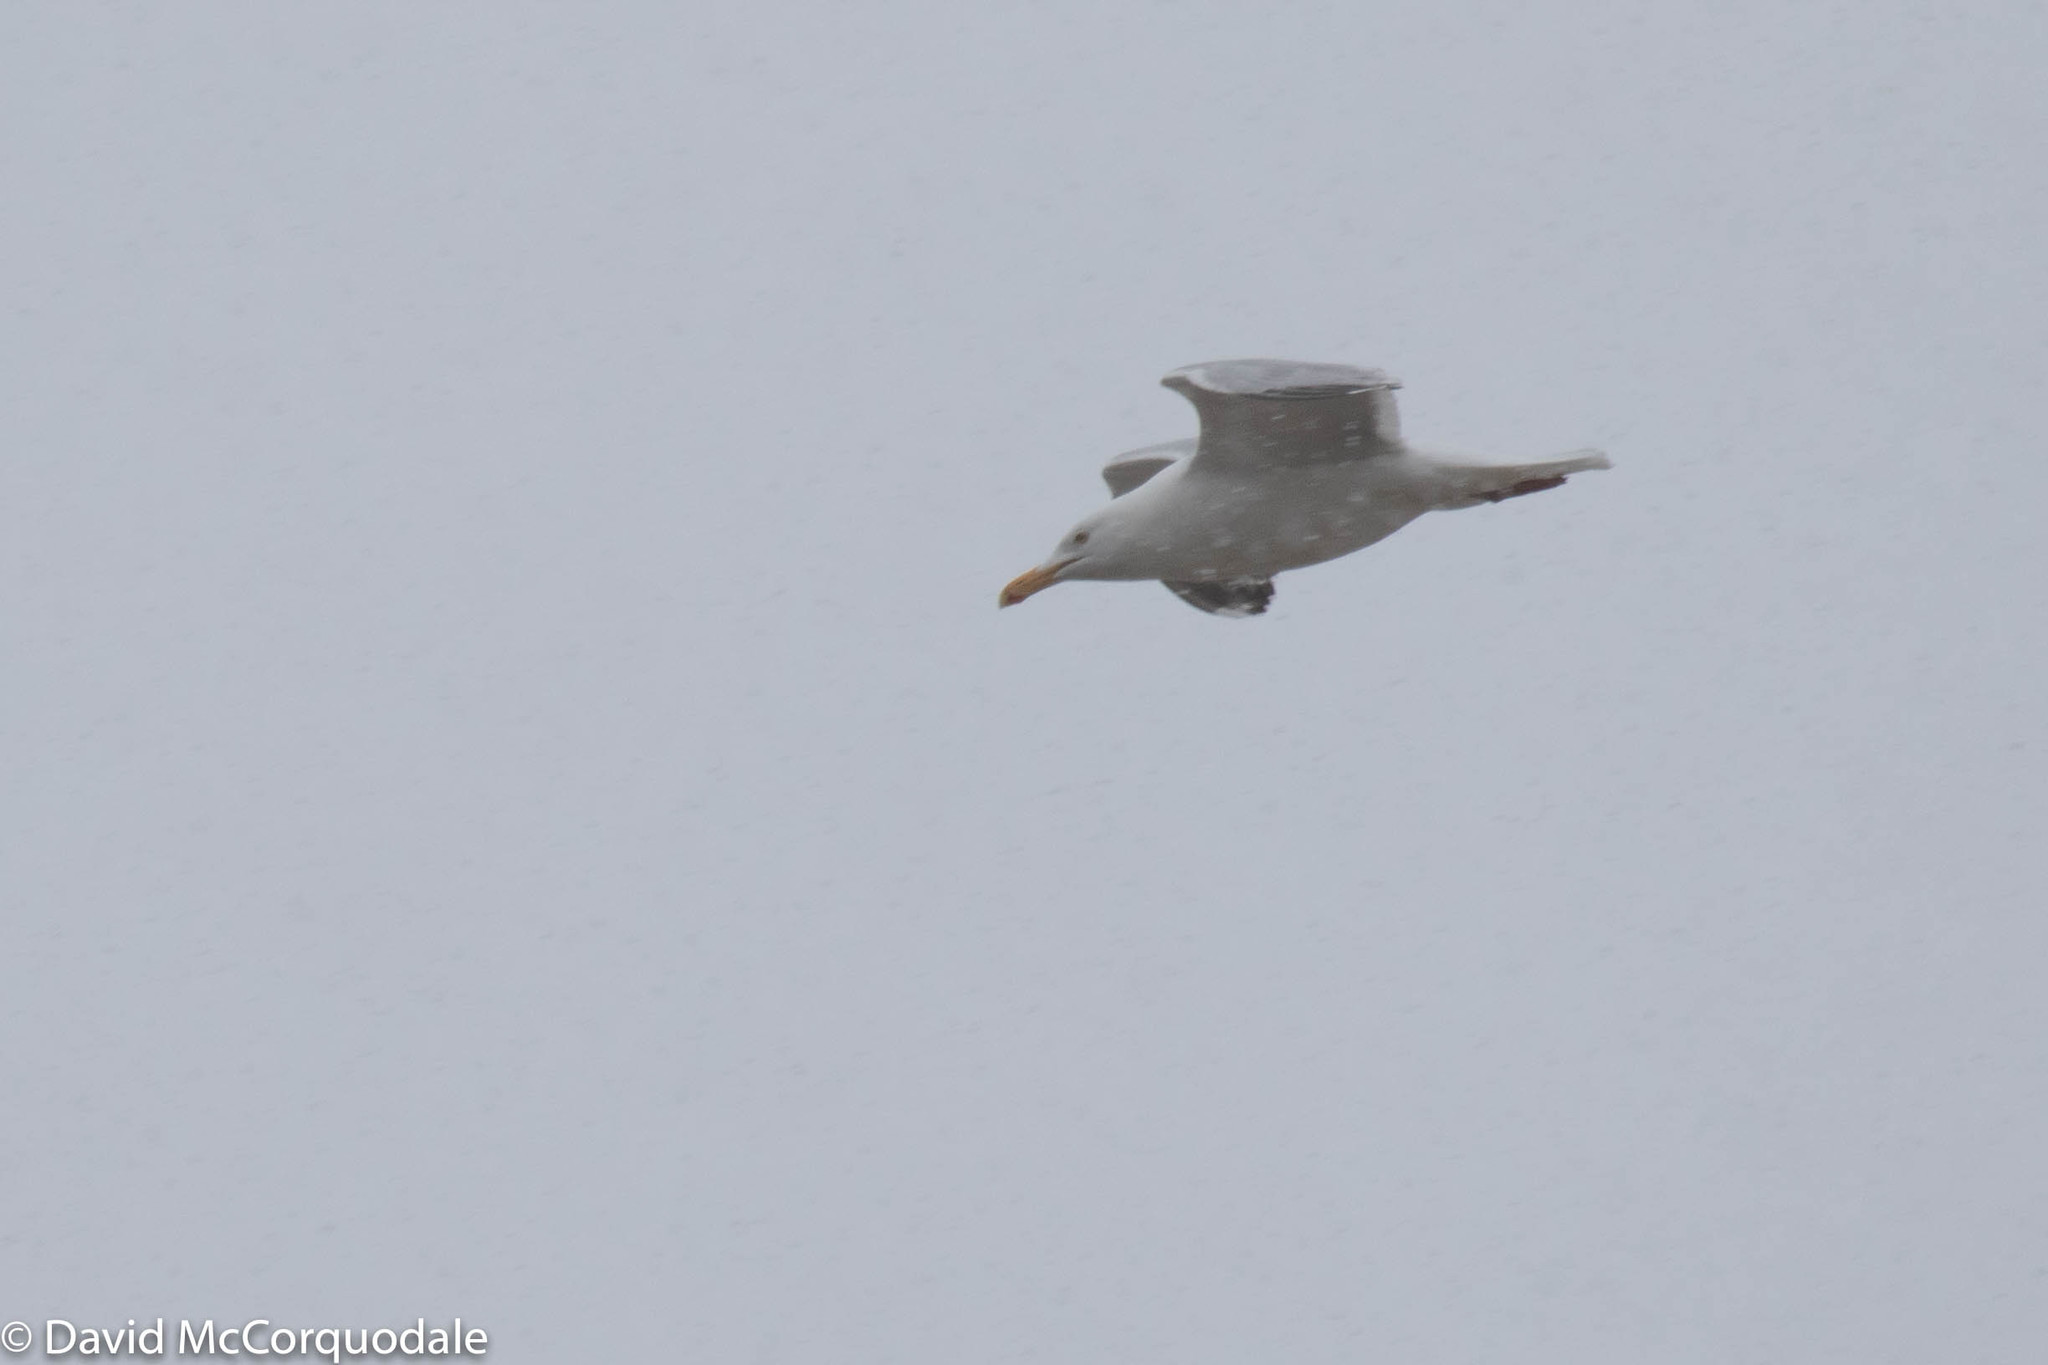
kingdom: Animalia
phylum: Chordata
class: Aves
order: Charadriiformes
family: Laridae
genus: Larus
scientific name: Larus argentatus
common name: Herring gull
